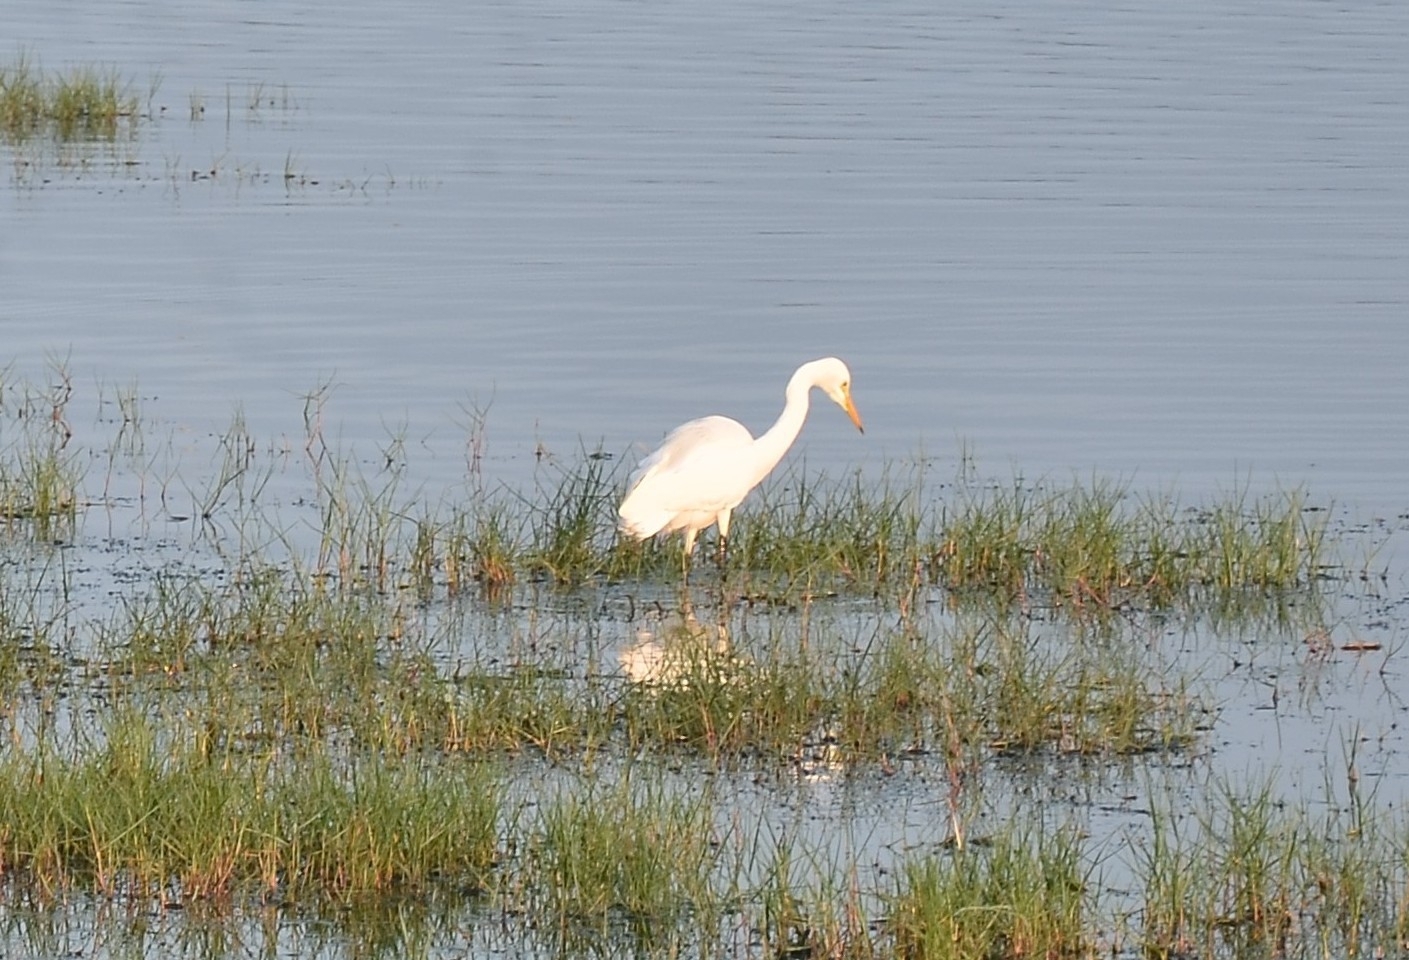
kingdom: Animalia
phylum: Chordata
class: Aves
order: Pelecaniformes
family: Ardeidae
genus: Egretta
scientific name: Egretta intermedia
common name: Intermediate egret
